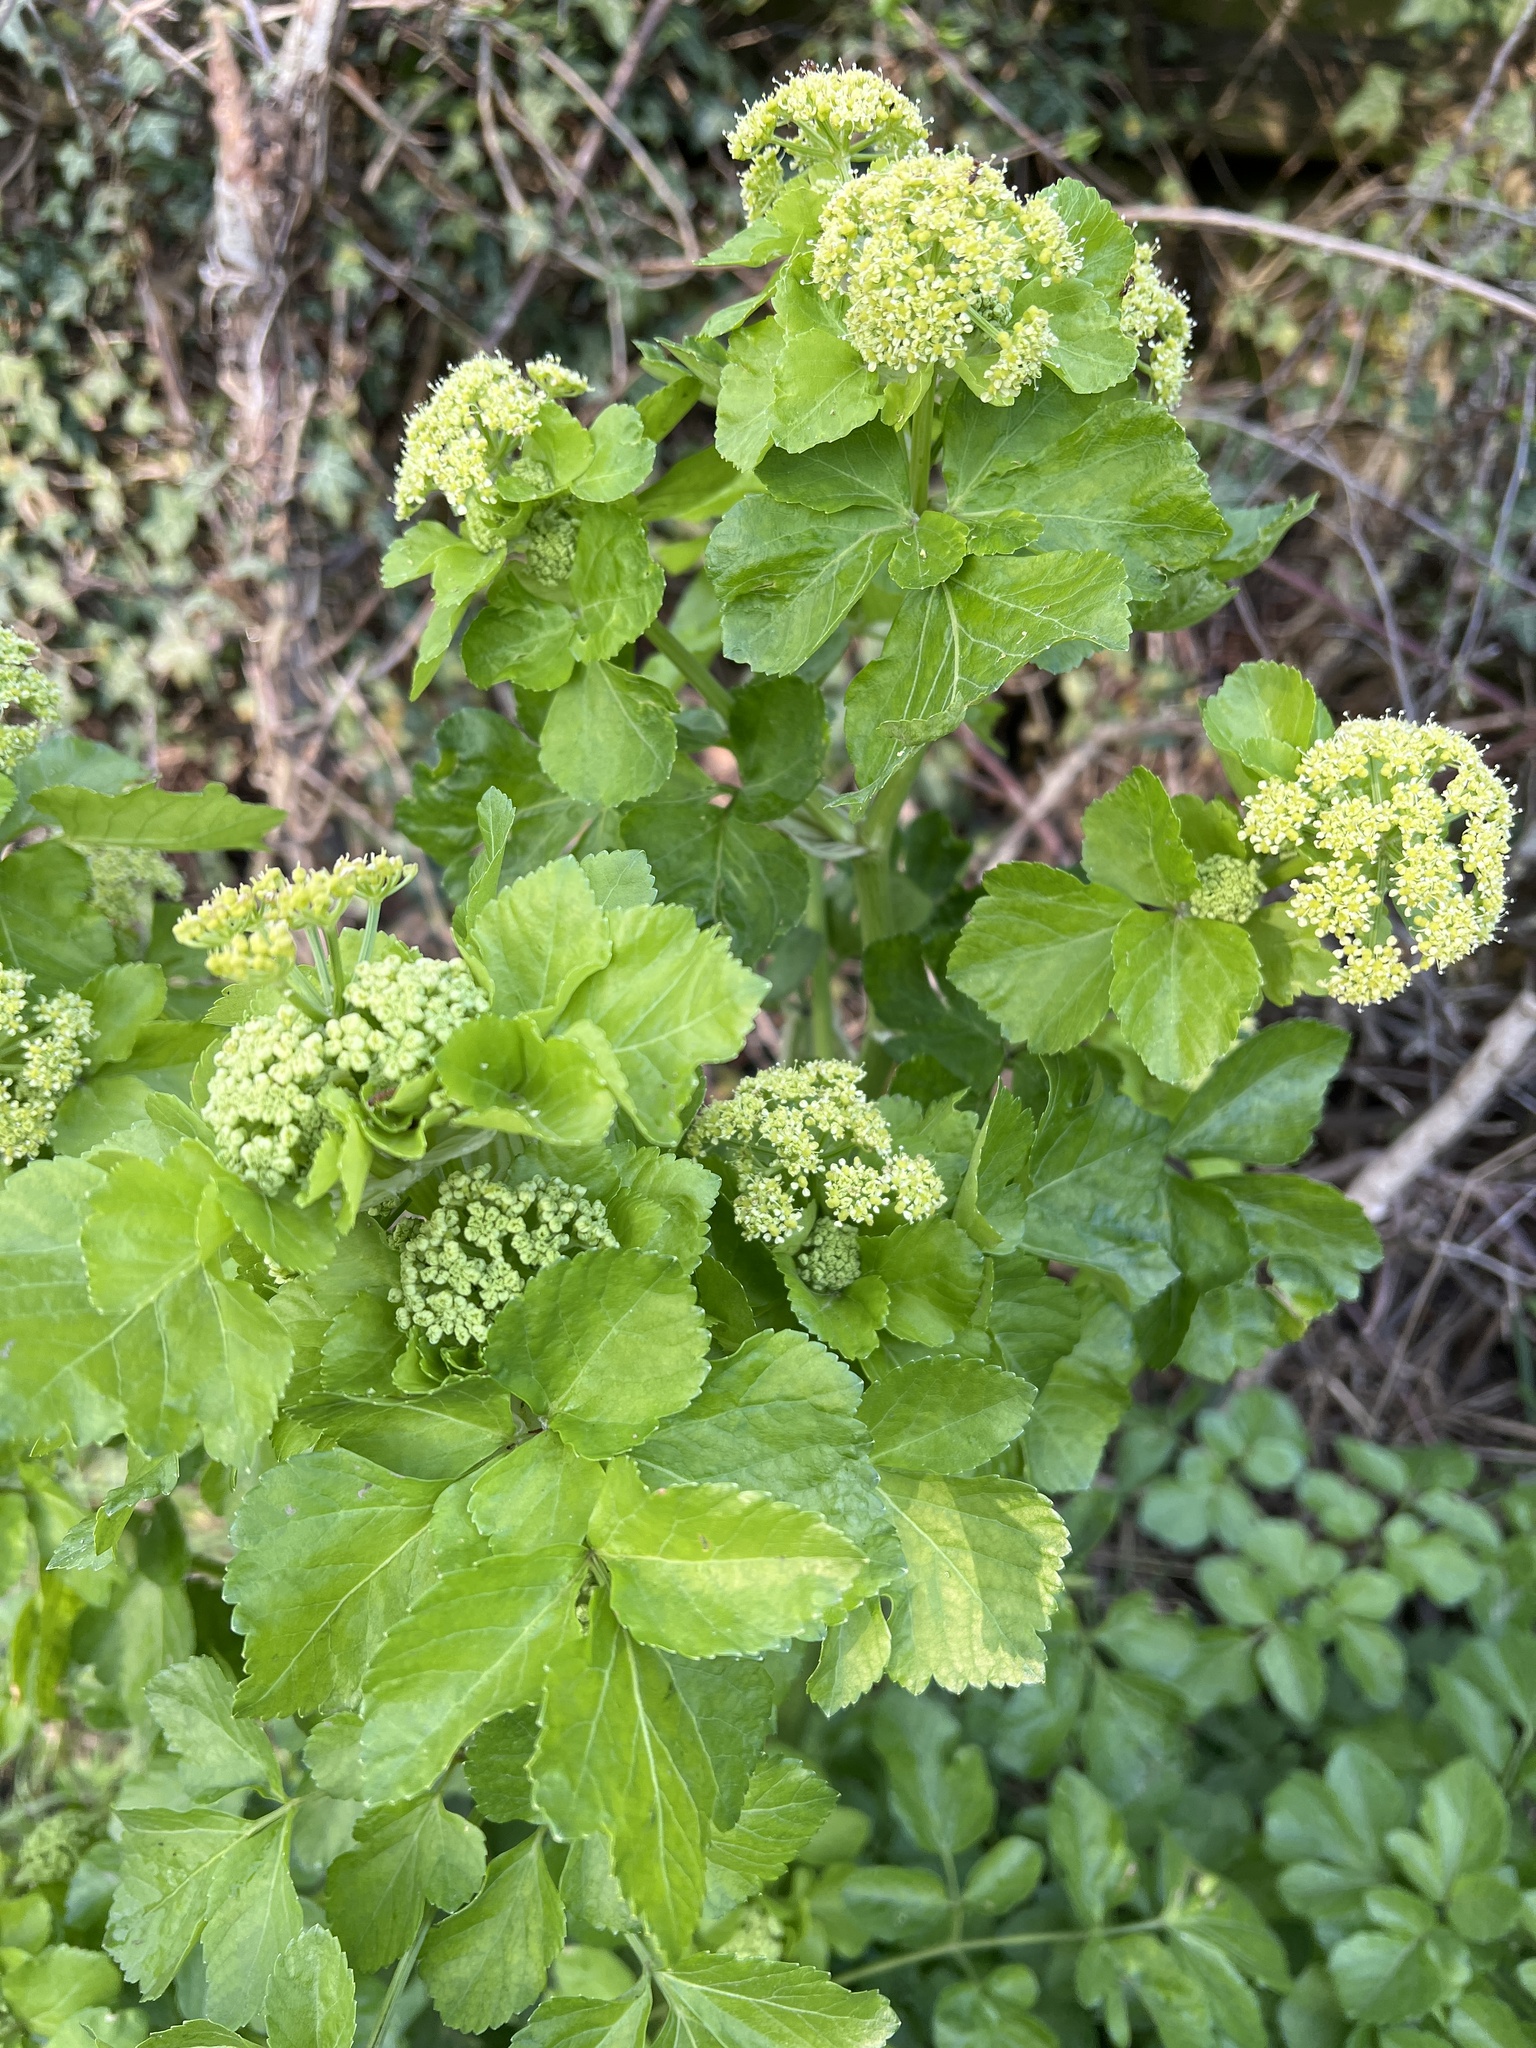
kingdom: Plantae
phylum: Tracheophyta
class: Magnoliopsida
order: Apiales
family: Apiaceae
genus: Smyrnium
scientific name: Smyrnium olusatrum
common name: Alexanders
